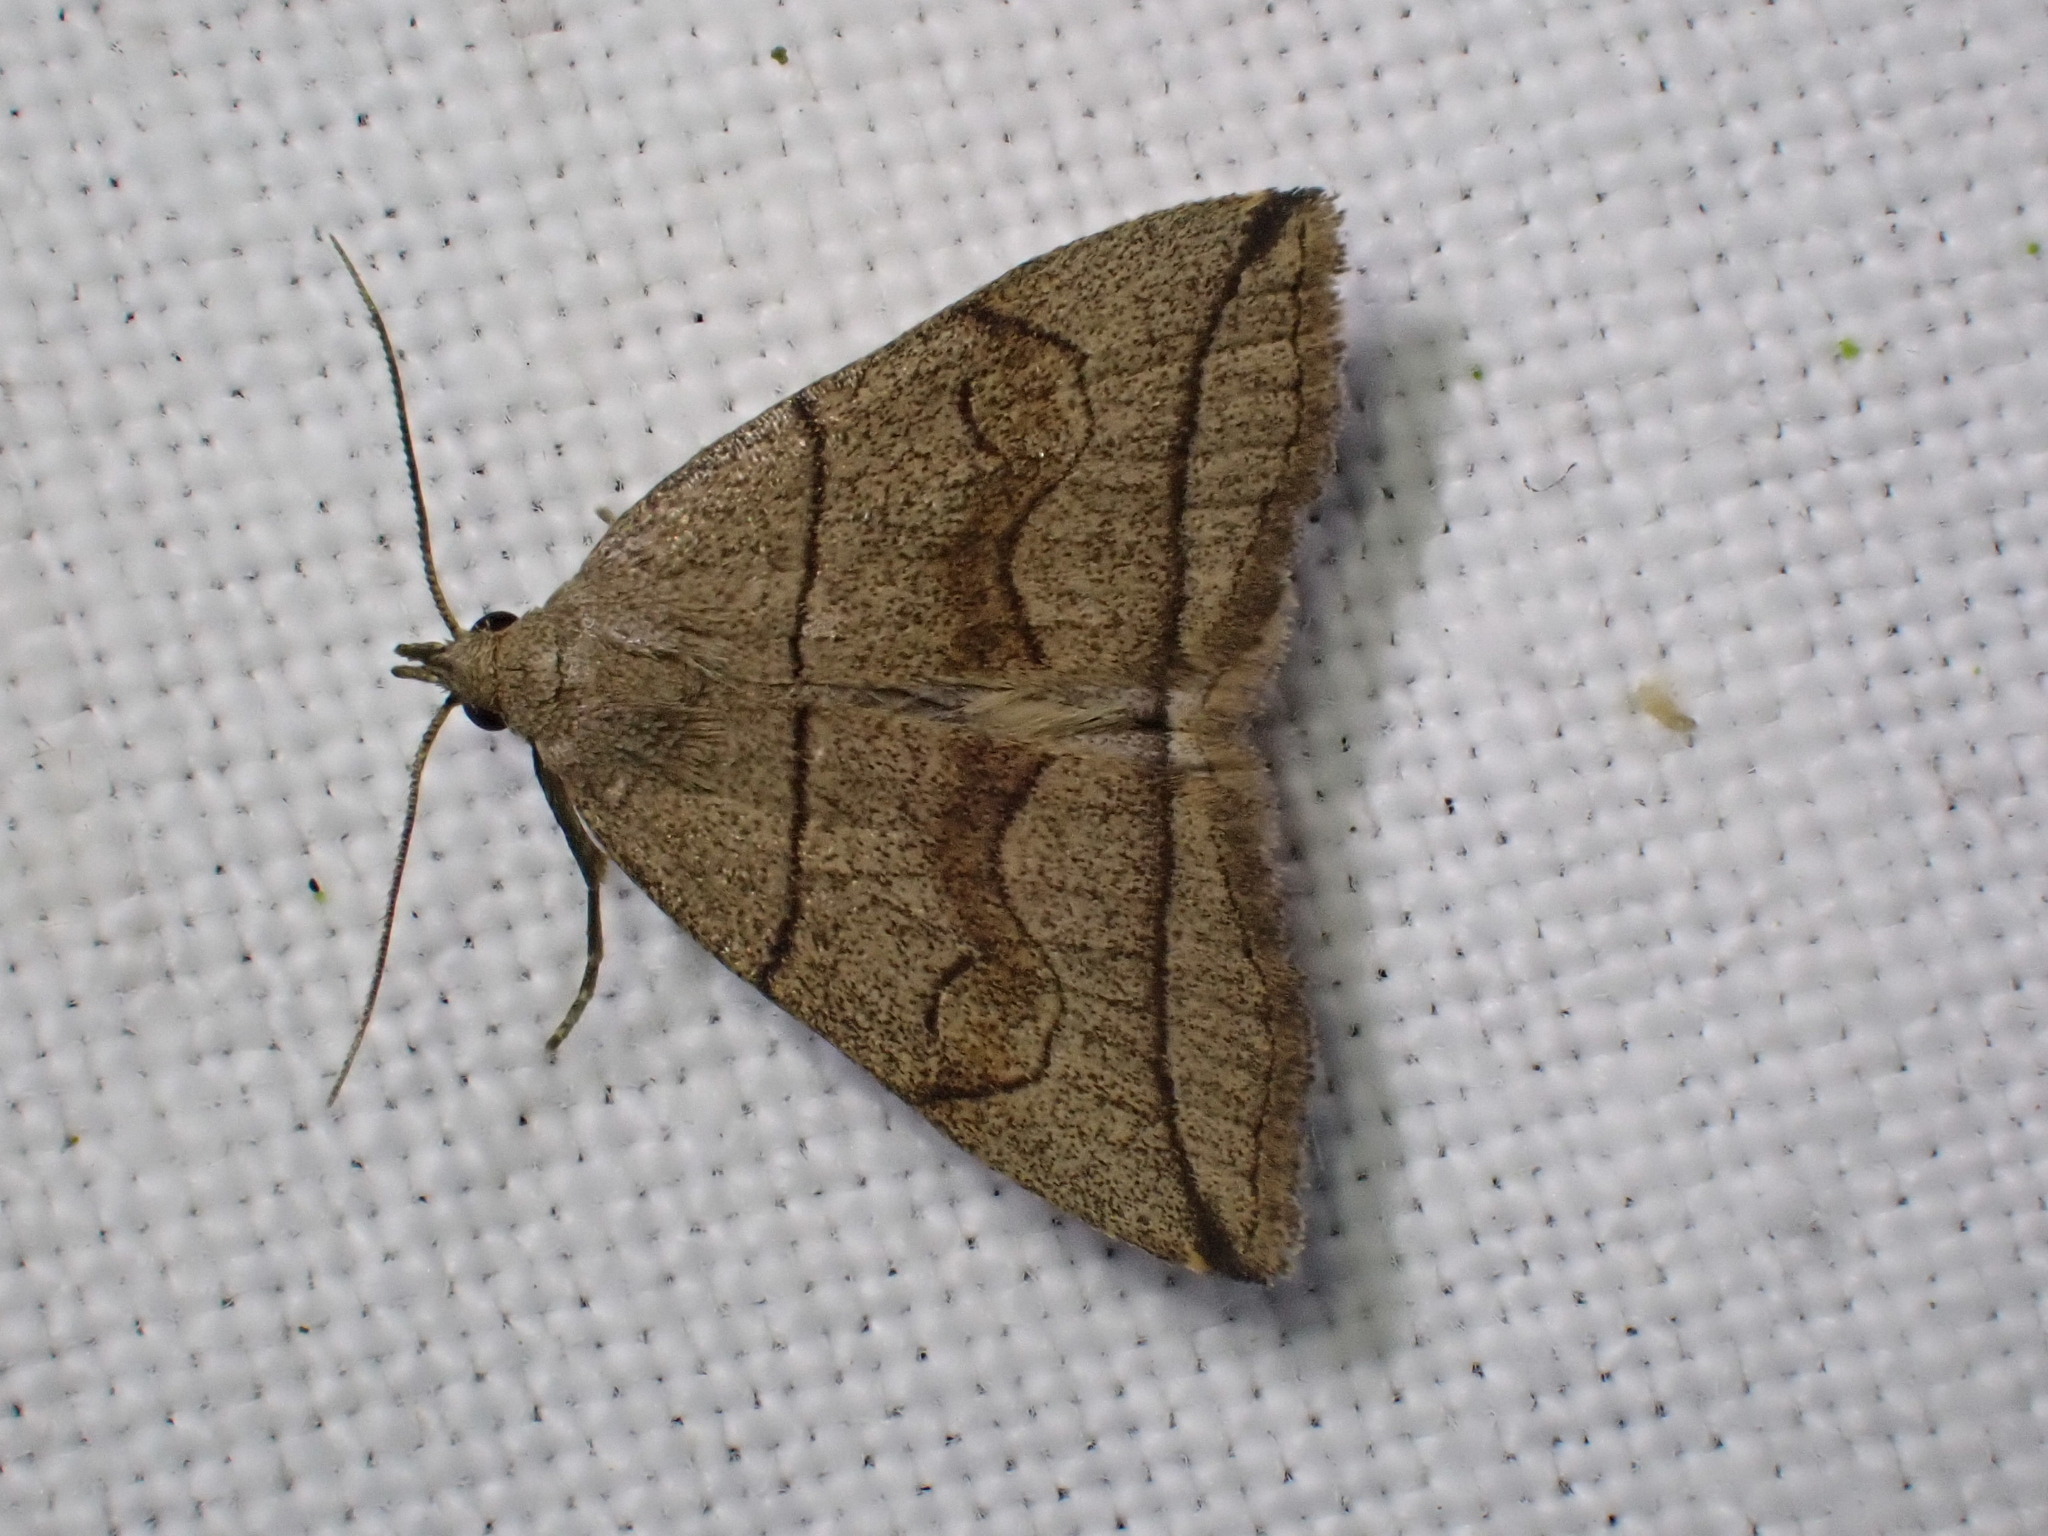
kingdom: Animalia
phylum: Arthropoda
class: Insecta
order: Lepidoptera
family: Erebidae
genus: Herminia
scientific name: Herminia grisealis
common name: Small fan-foot
